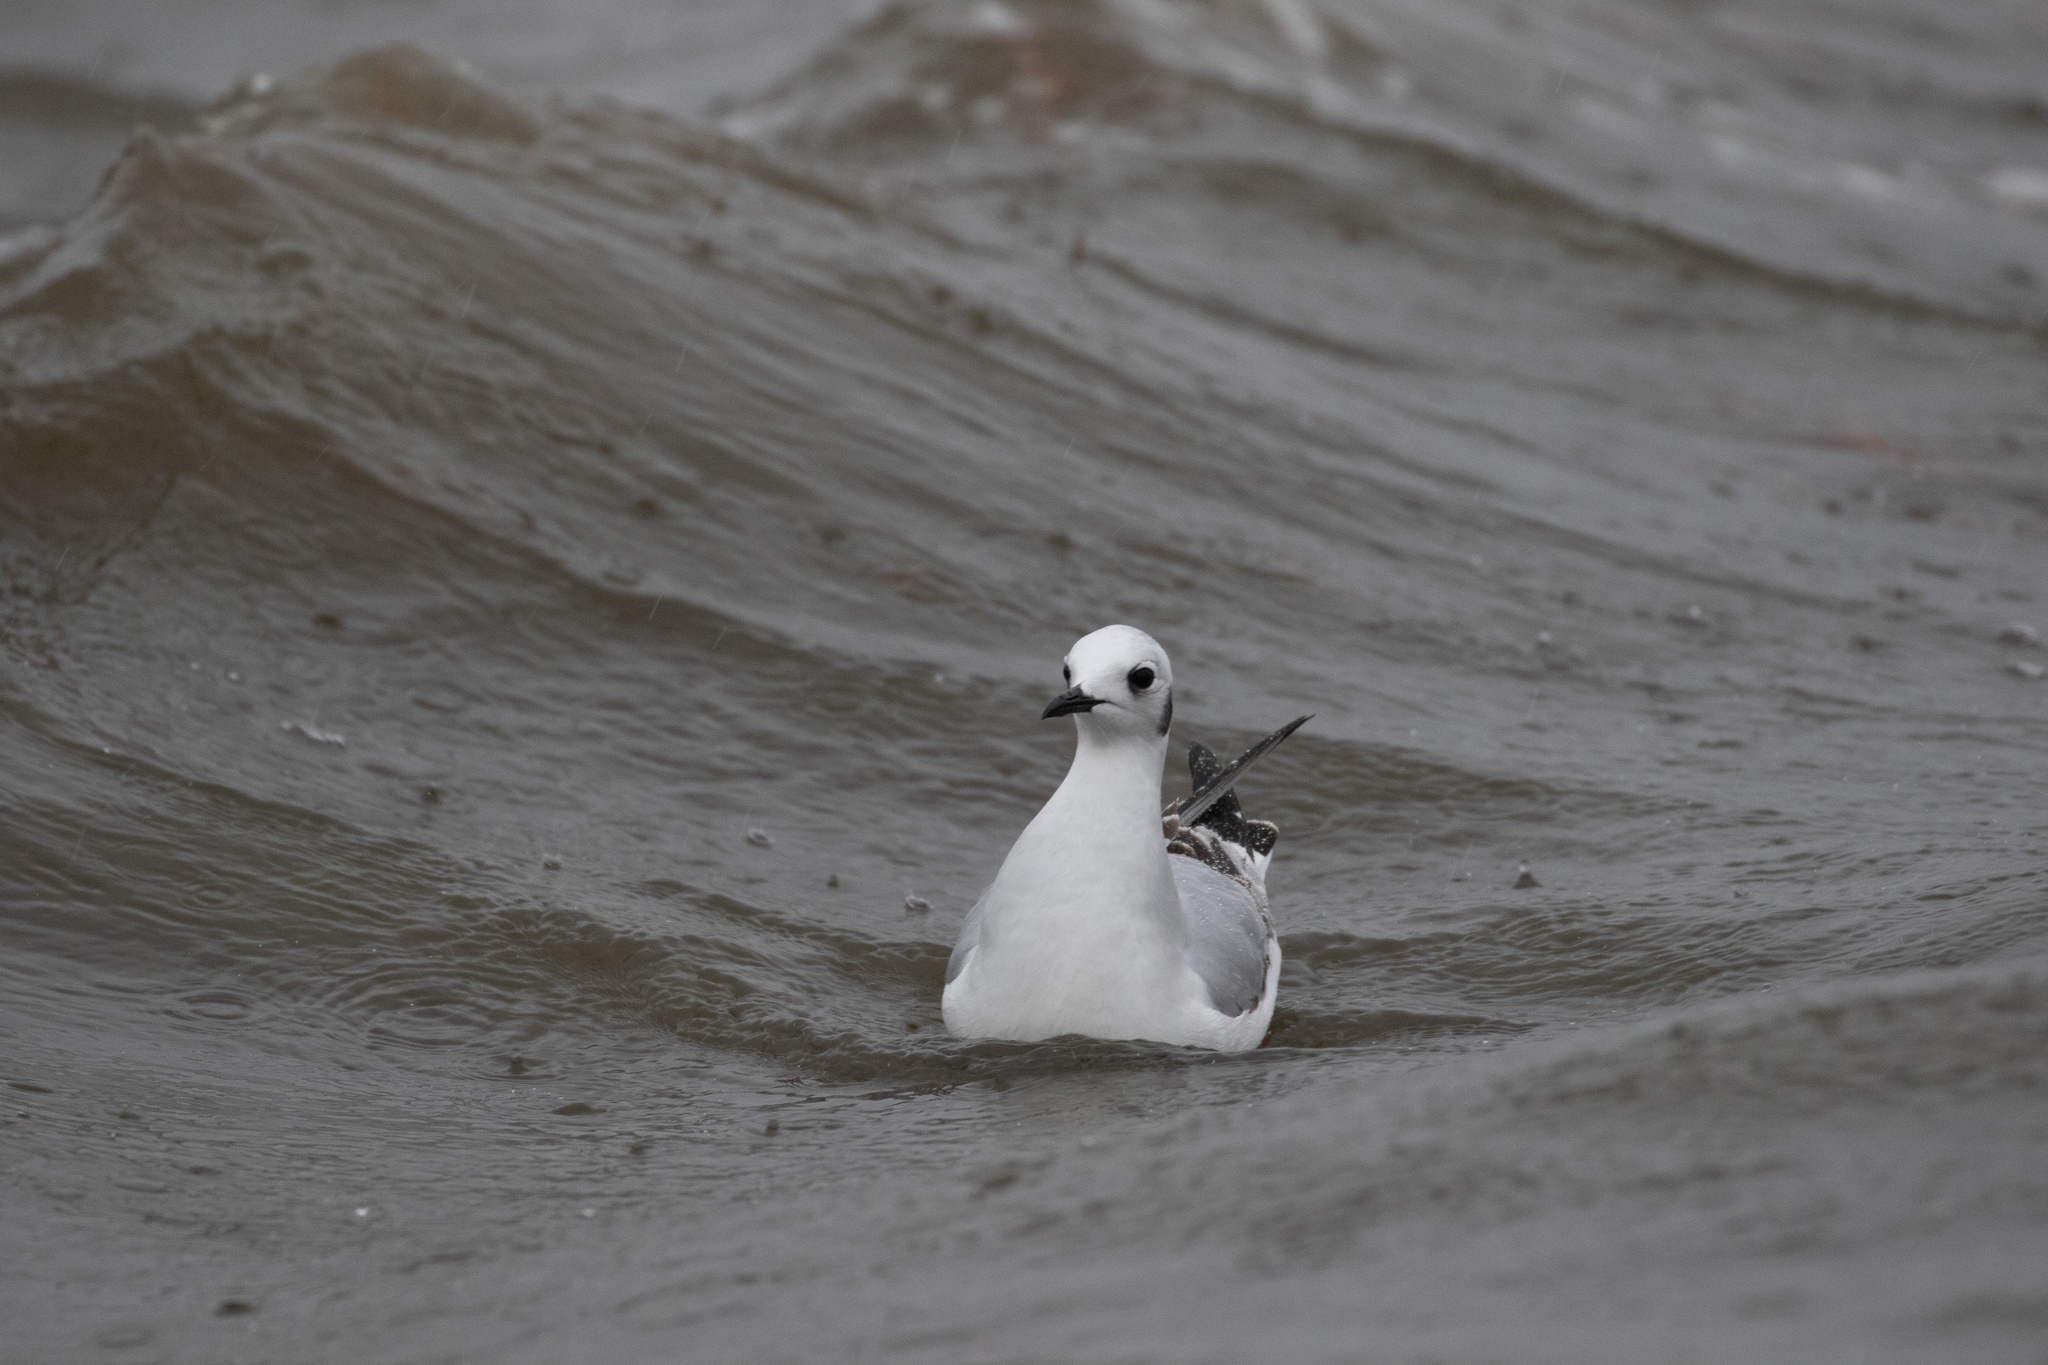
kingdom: Animalia
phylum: Chordata
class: Aves
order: Charadriiformes
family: Laridae
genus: Chroicocephalus
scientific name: Chroicocephalus philadelphia
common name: Bonaparte's gull
